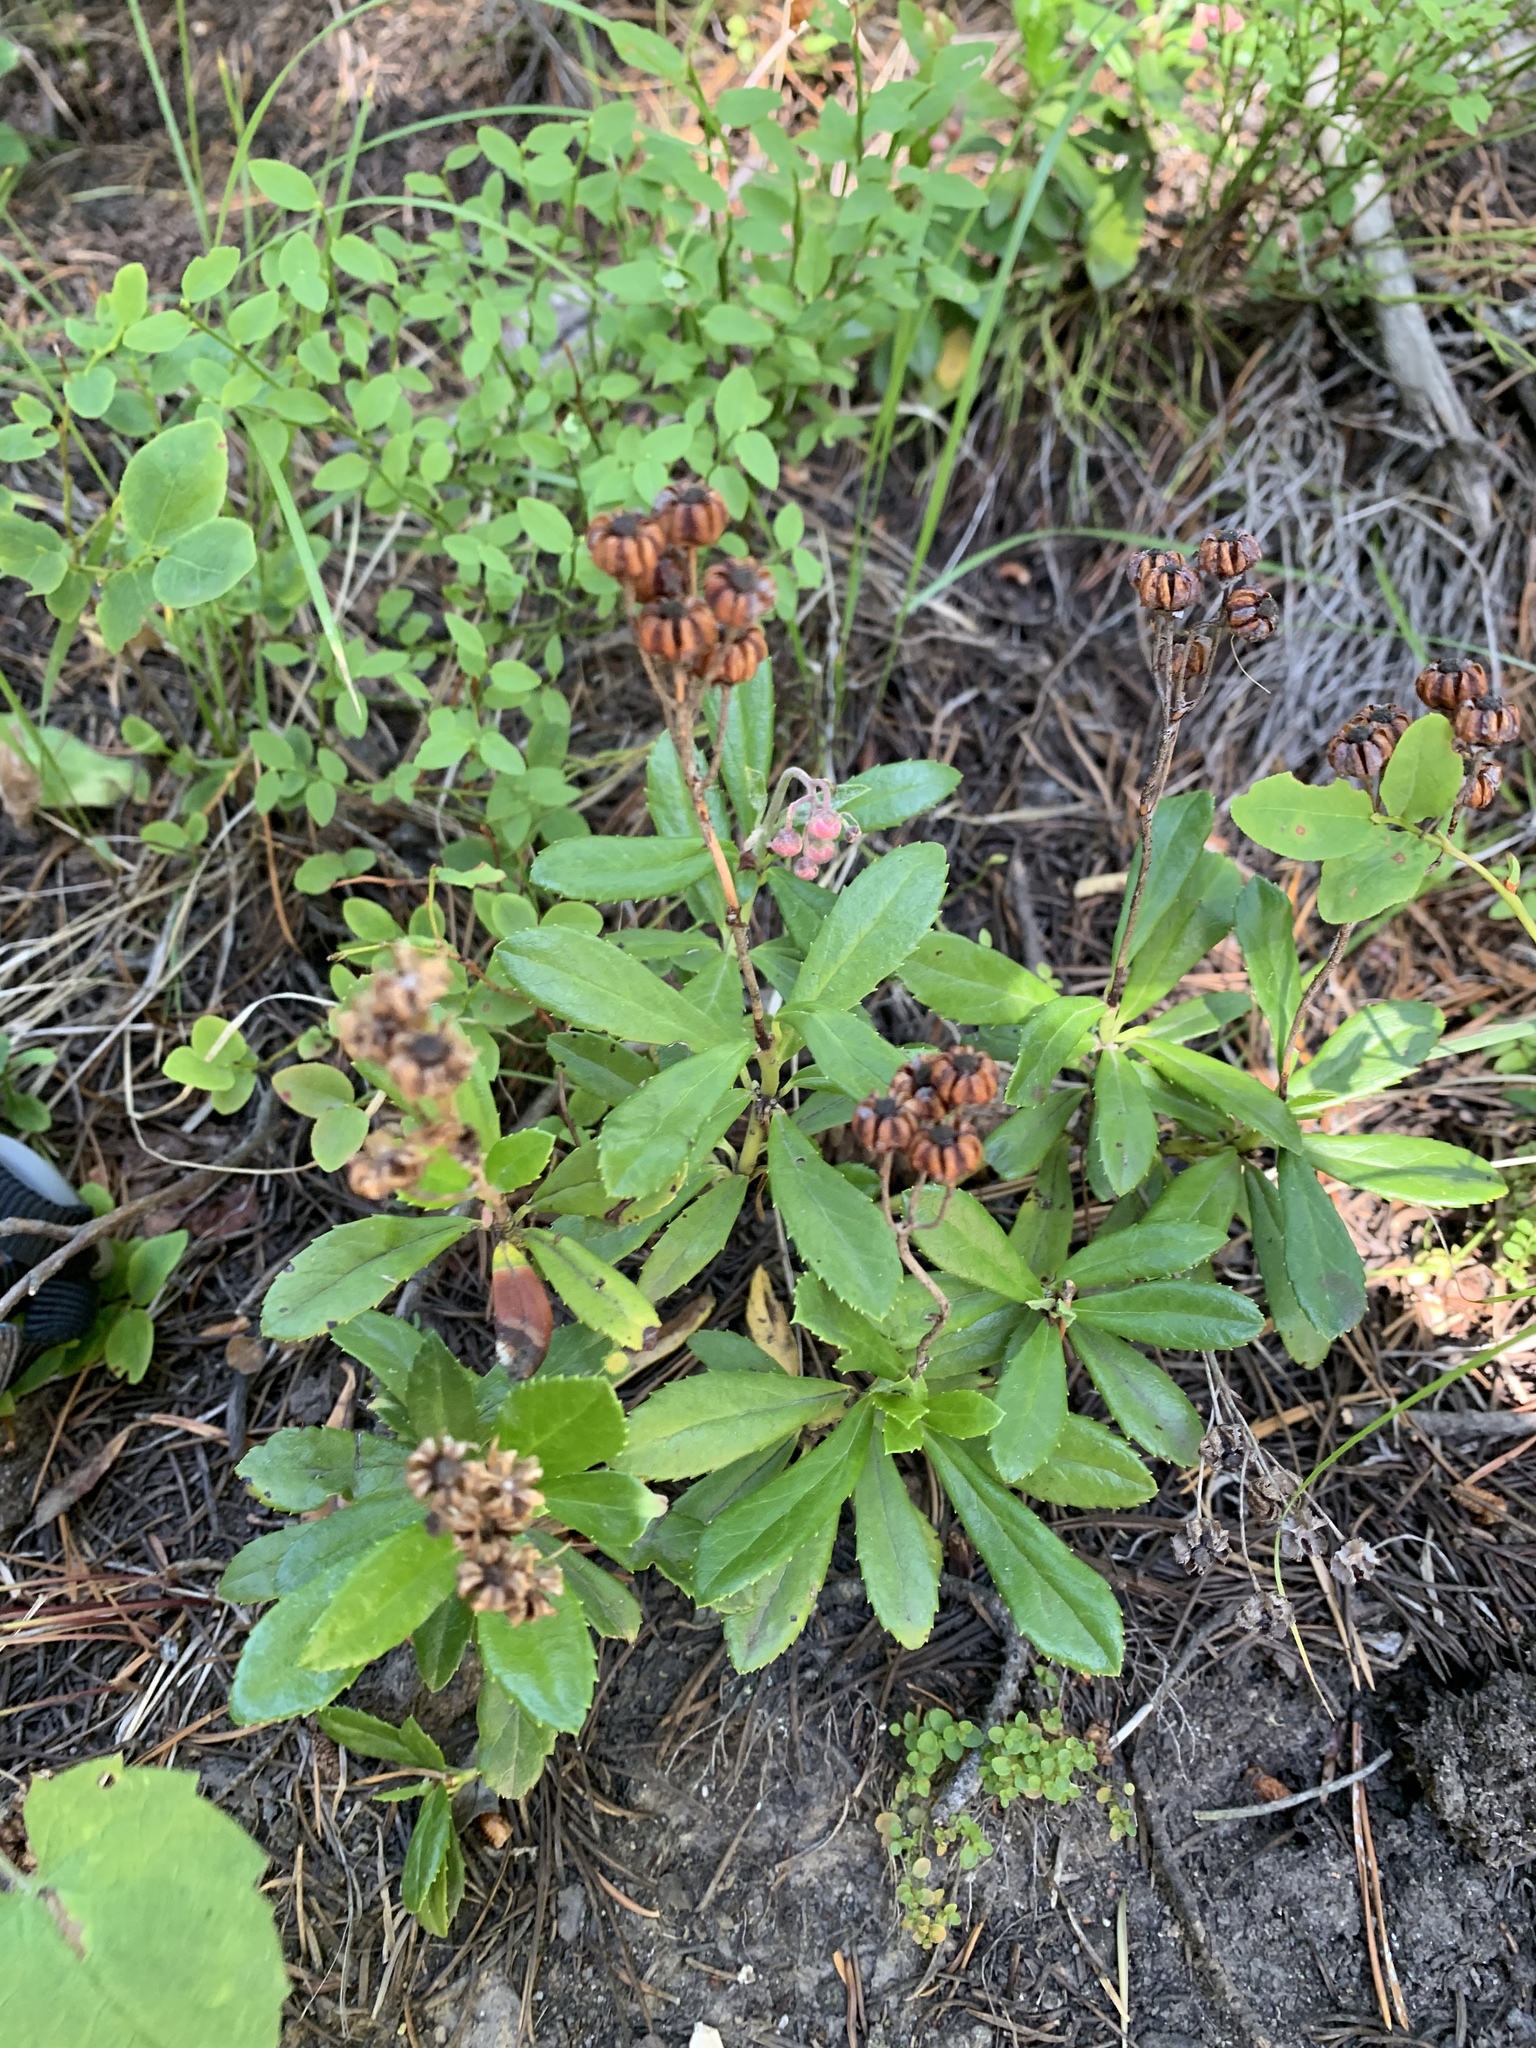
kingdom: Plantae
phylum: Tracheophyta
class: Magnoliopsida
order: Ericales
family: Ericaceae
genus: Chimaphila
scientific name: Chimaphila umbellata
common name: Pipsissewa
